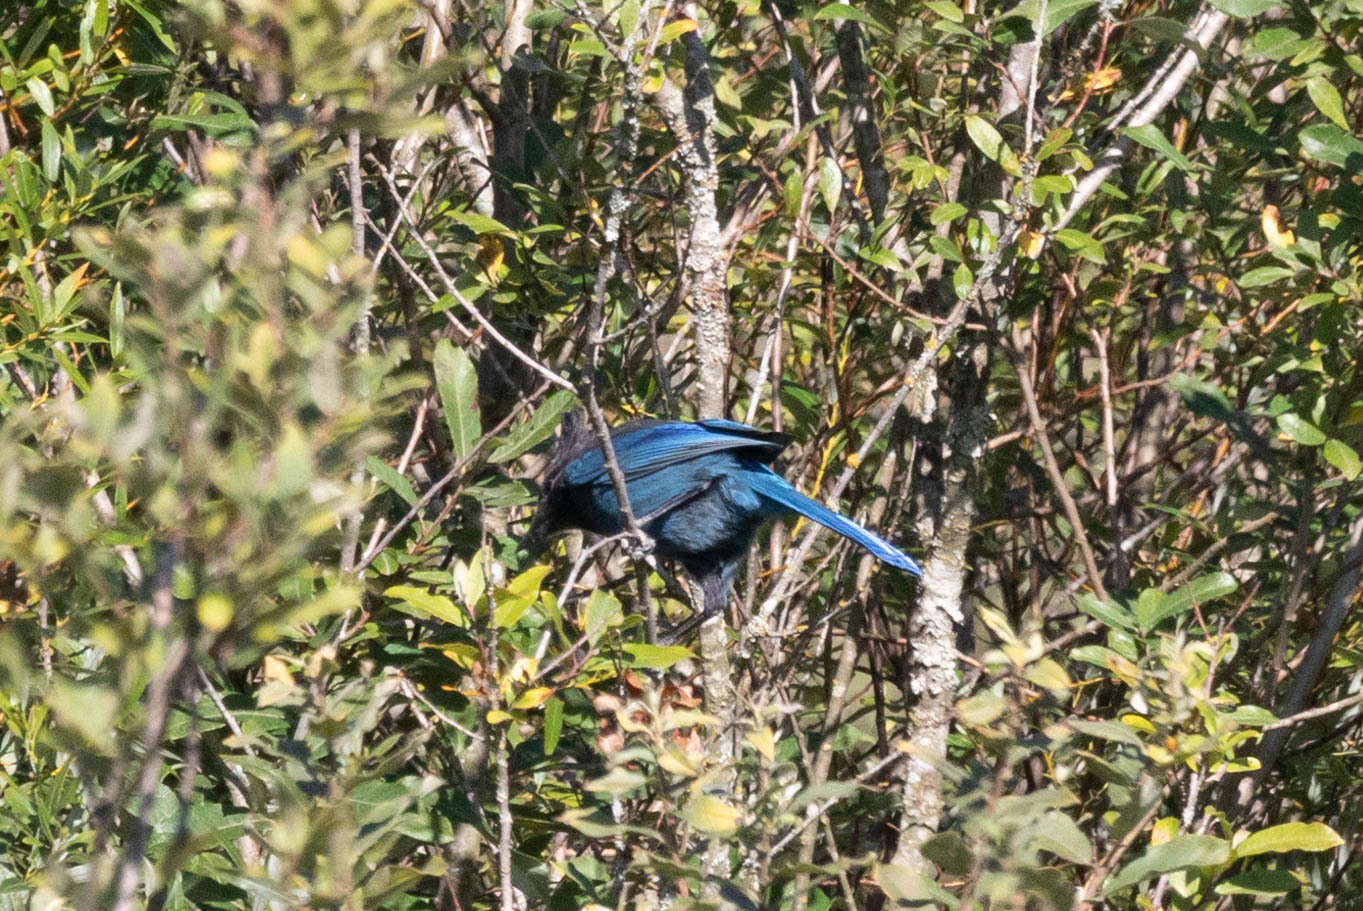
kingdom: Animalia
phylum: Chordata
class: Aves
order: Passeriformes
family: Corvidae
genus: Cyanocitta
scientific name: Cyanocitta stelleri
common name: Steller's jay
